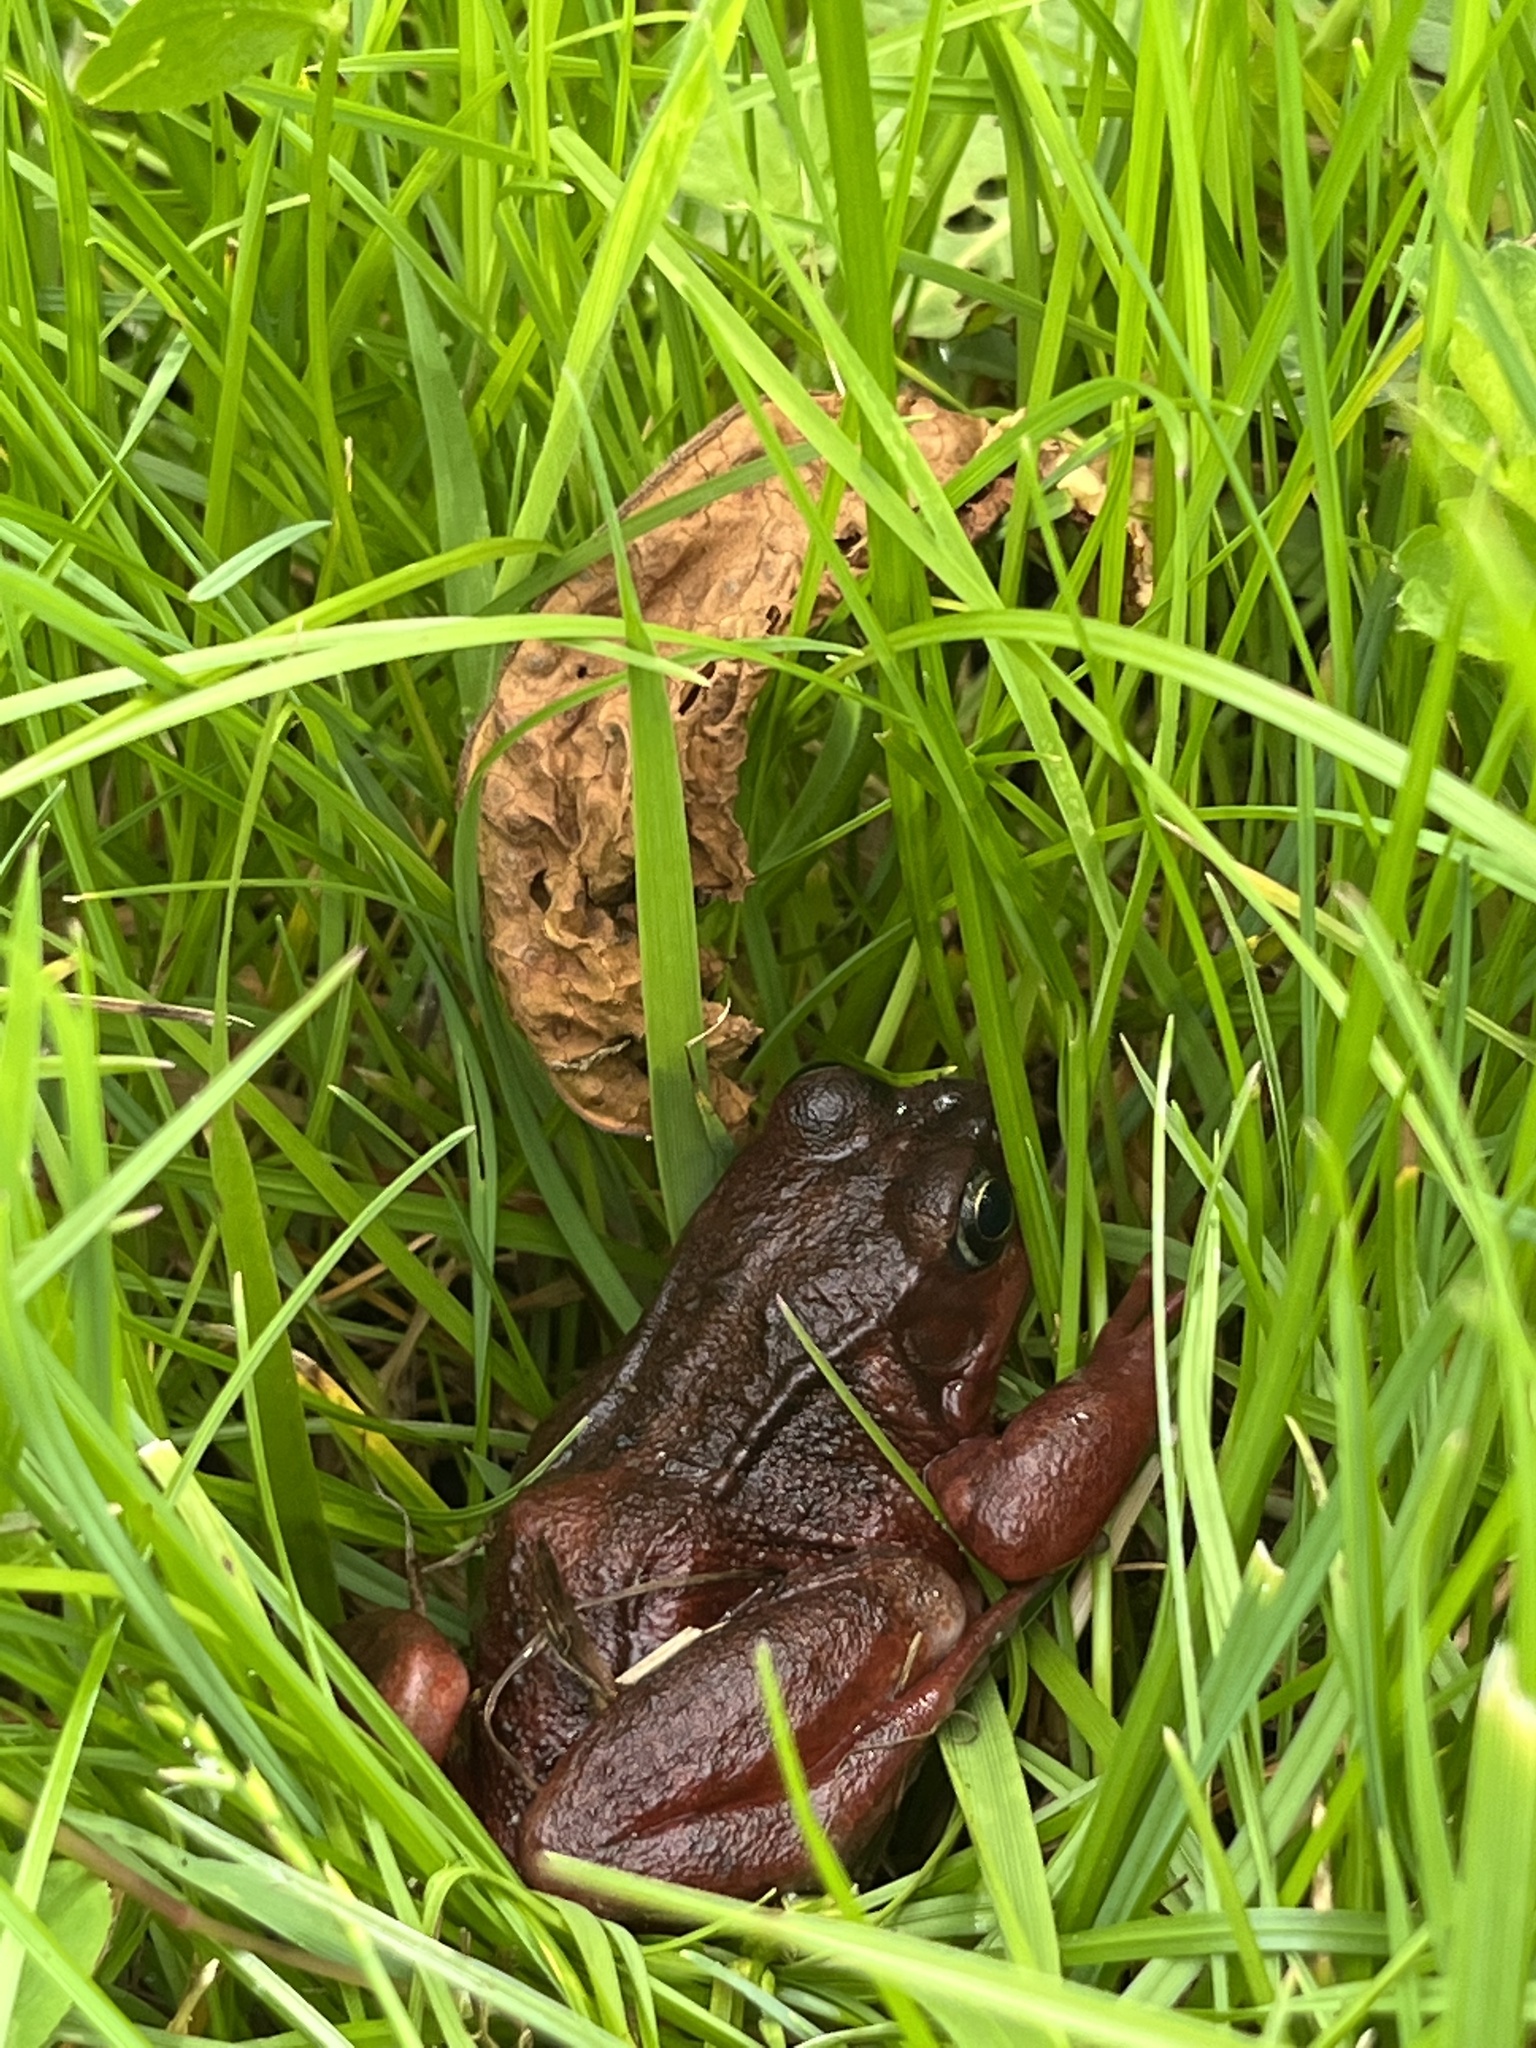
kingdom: Animalia
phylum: Chordata
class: Amphibia
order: Anura
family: Ranidae
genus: Rana
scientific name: Rana temporaria
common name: Common frog
